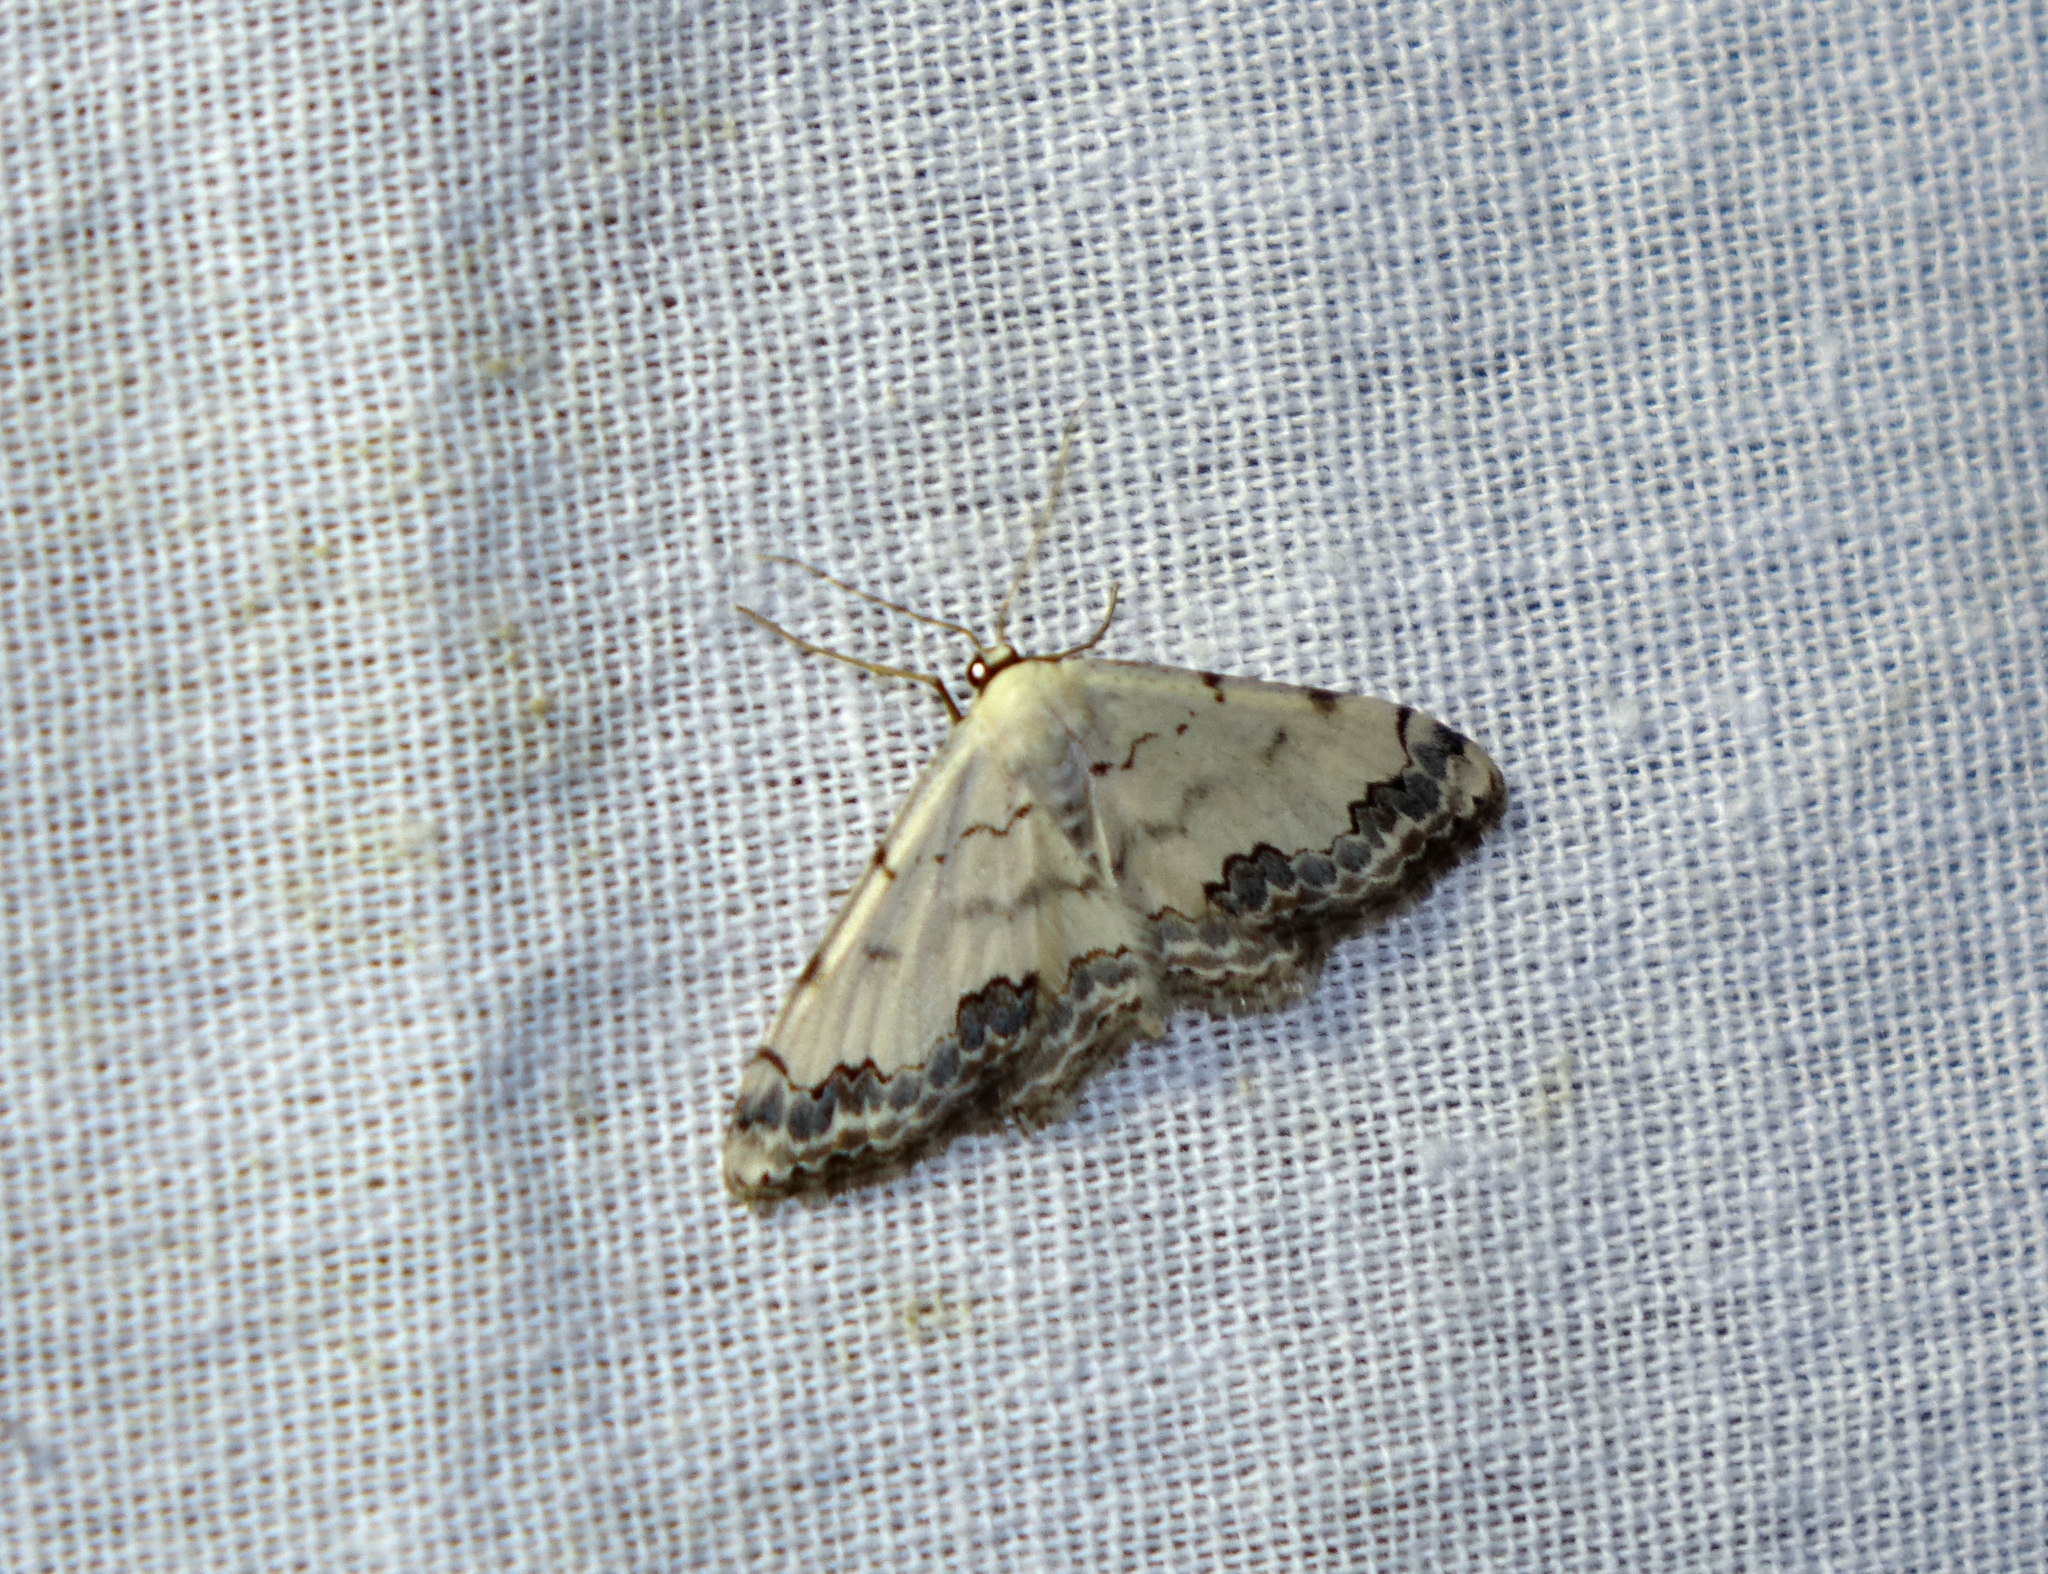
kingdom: Animalia
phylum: Arthropoda
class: Insecta
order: Lepidoptera
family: Geometridae
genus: Scopula
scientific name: Scopula decorata
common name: Middle lace border
